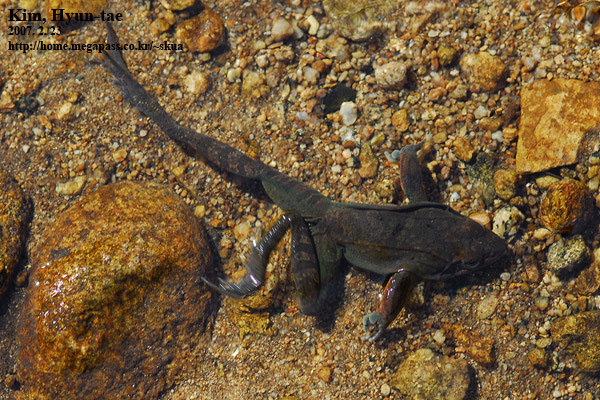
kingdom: Animalia
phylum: Chordata
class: Amphibia
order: Anura
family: Ranidae
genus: Rana
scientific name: Rana uenoi
